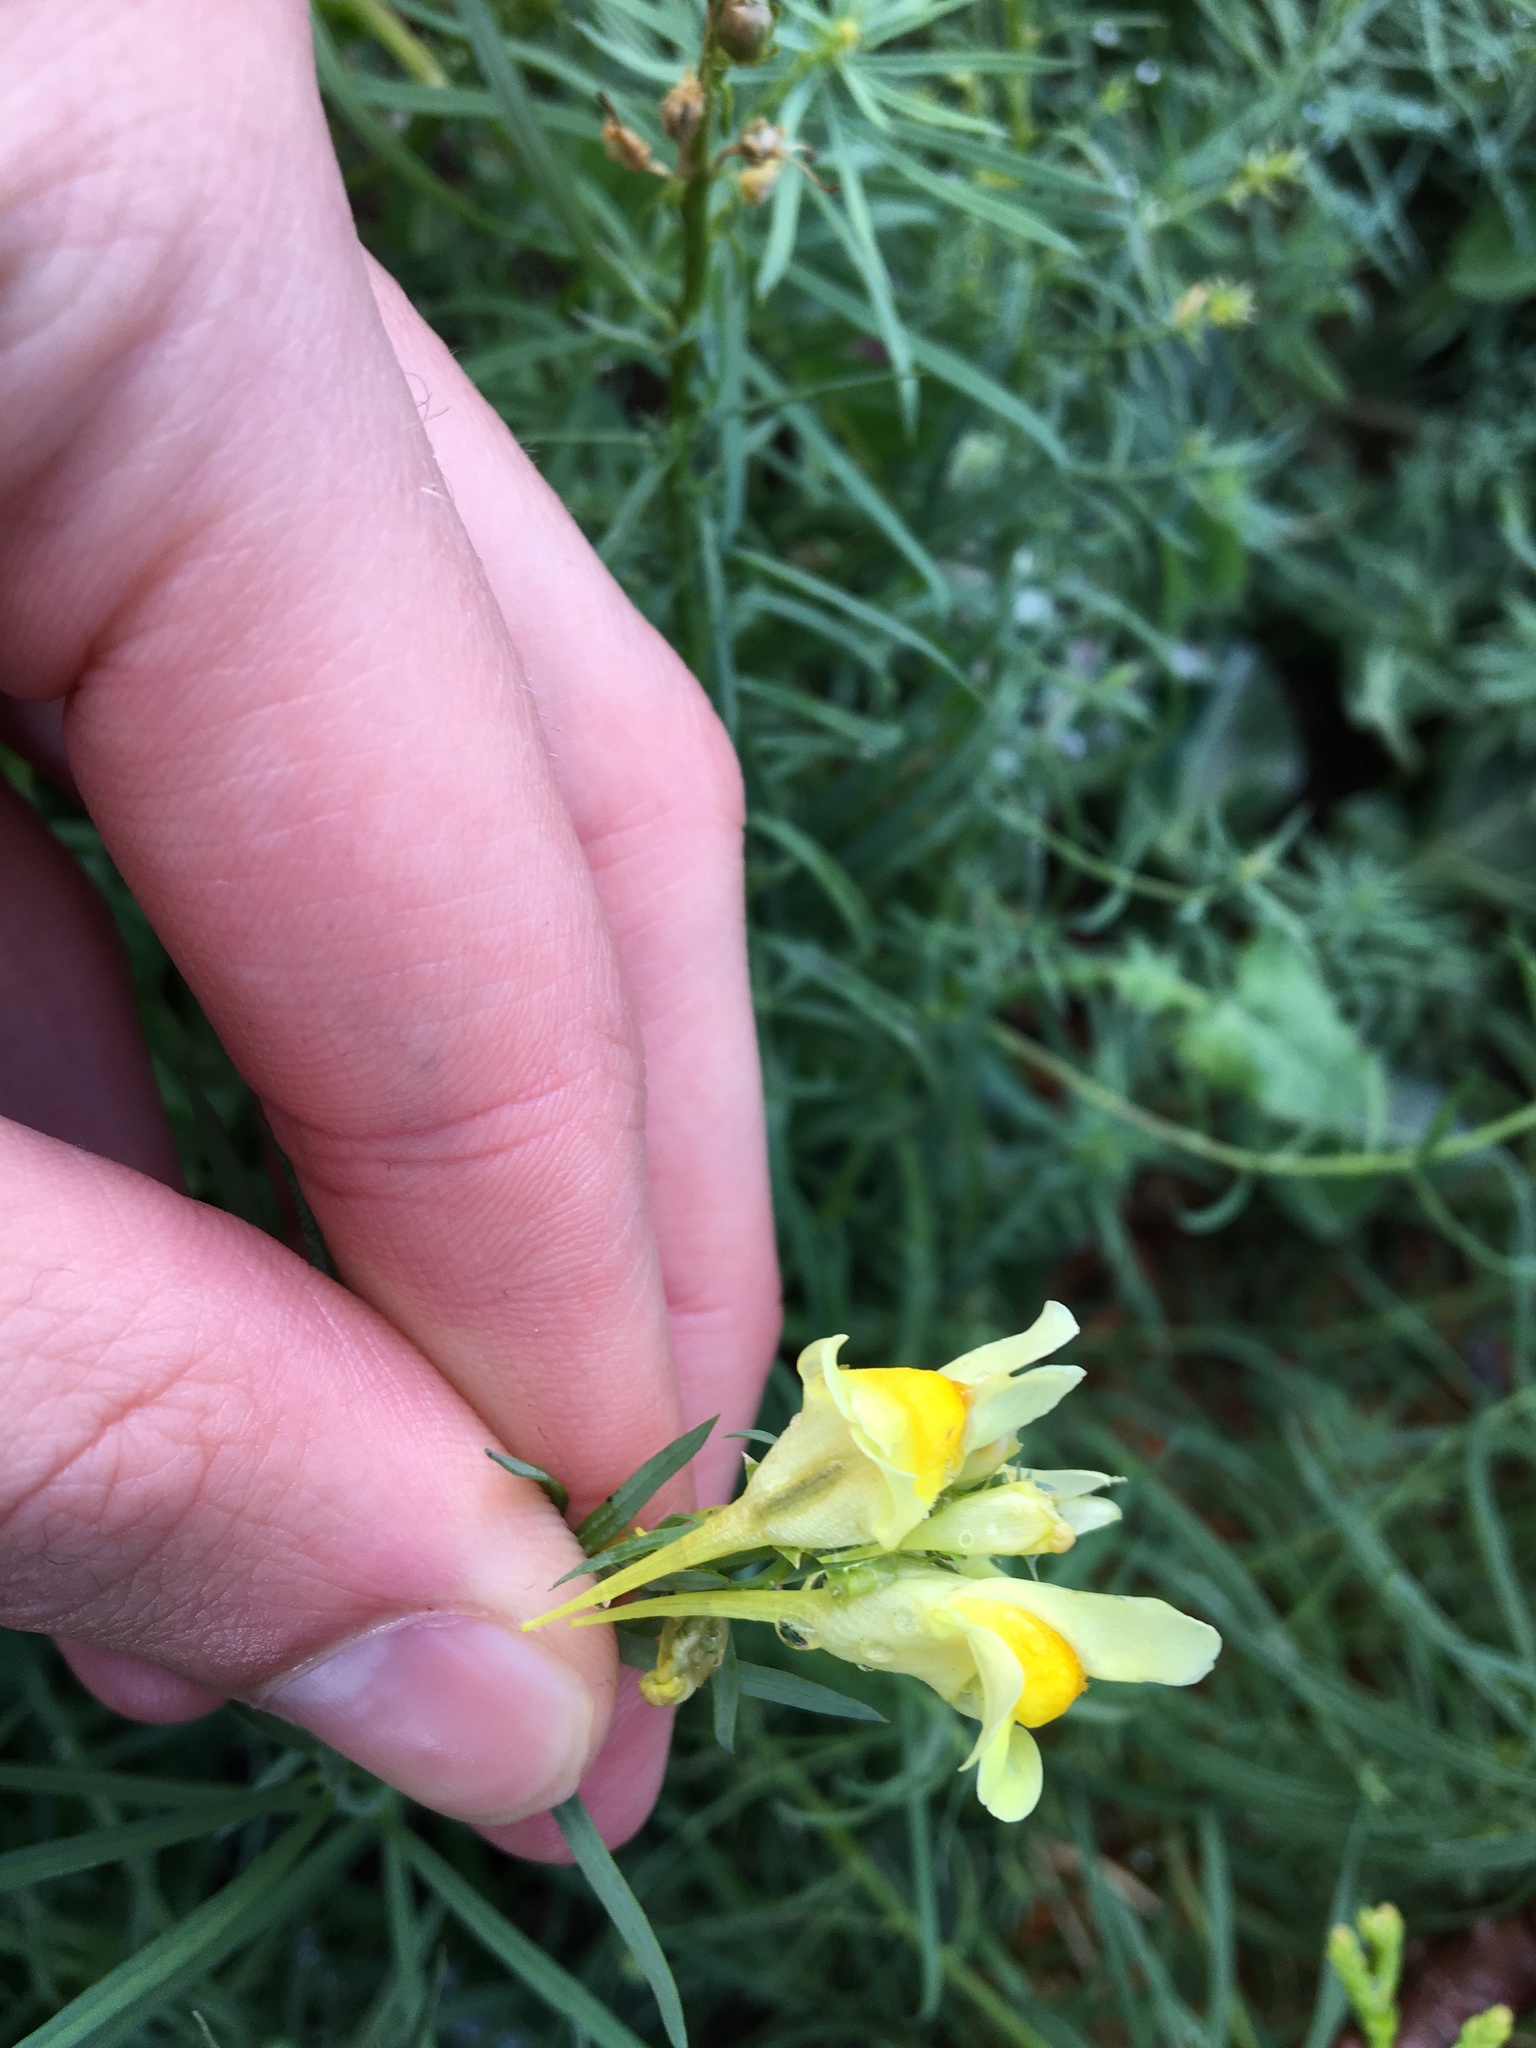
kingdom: Plantae
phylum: Tracheophyta
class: Magnoliopsida
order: Lamiales
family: Plantaginaceae
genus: Linaria
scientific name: Linaria vulgaris
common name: Butter and eggs
